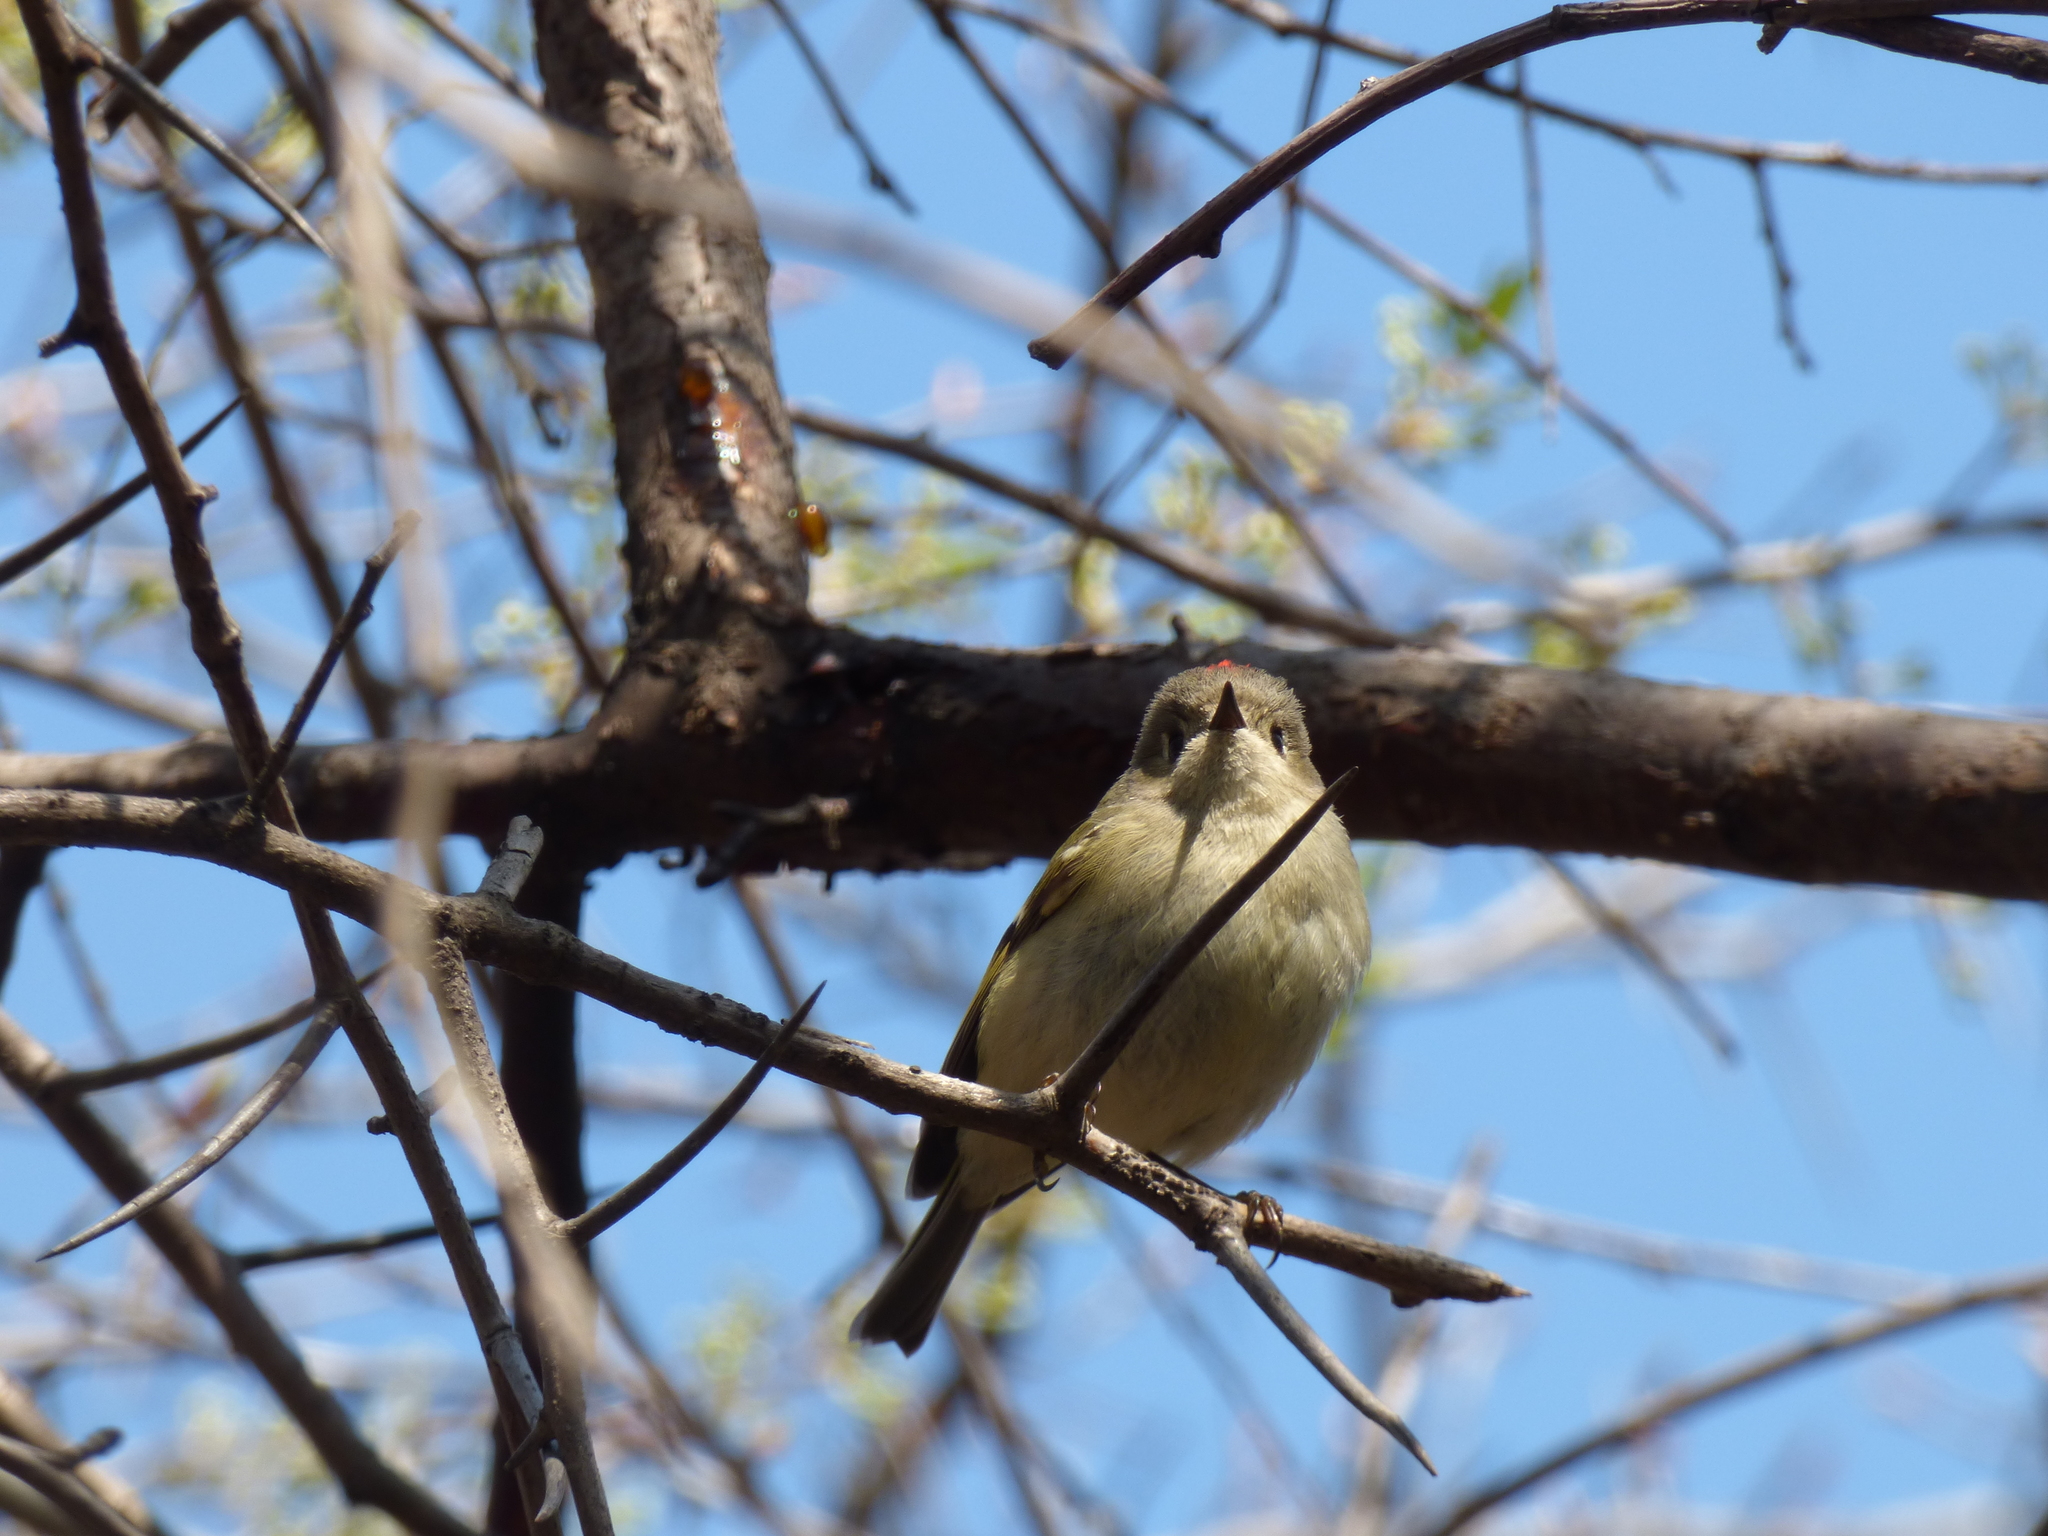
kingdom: Animalia
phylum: Chordata
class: Aves
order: Passeriformes
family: Regulidae
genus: Regulus
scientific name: Regulus calendula
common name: Ruby-crowned kinglet
